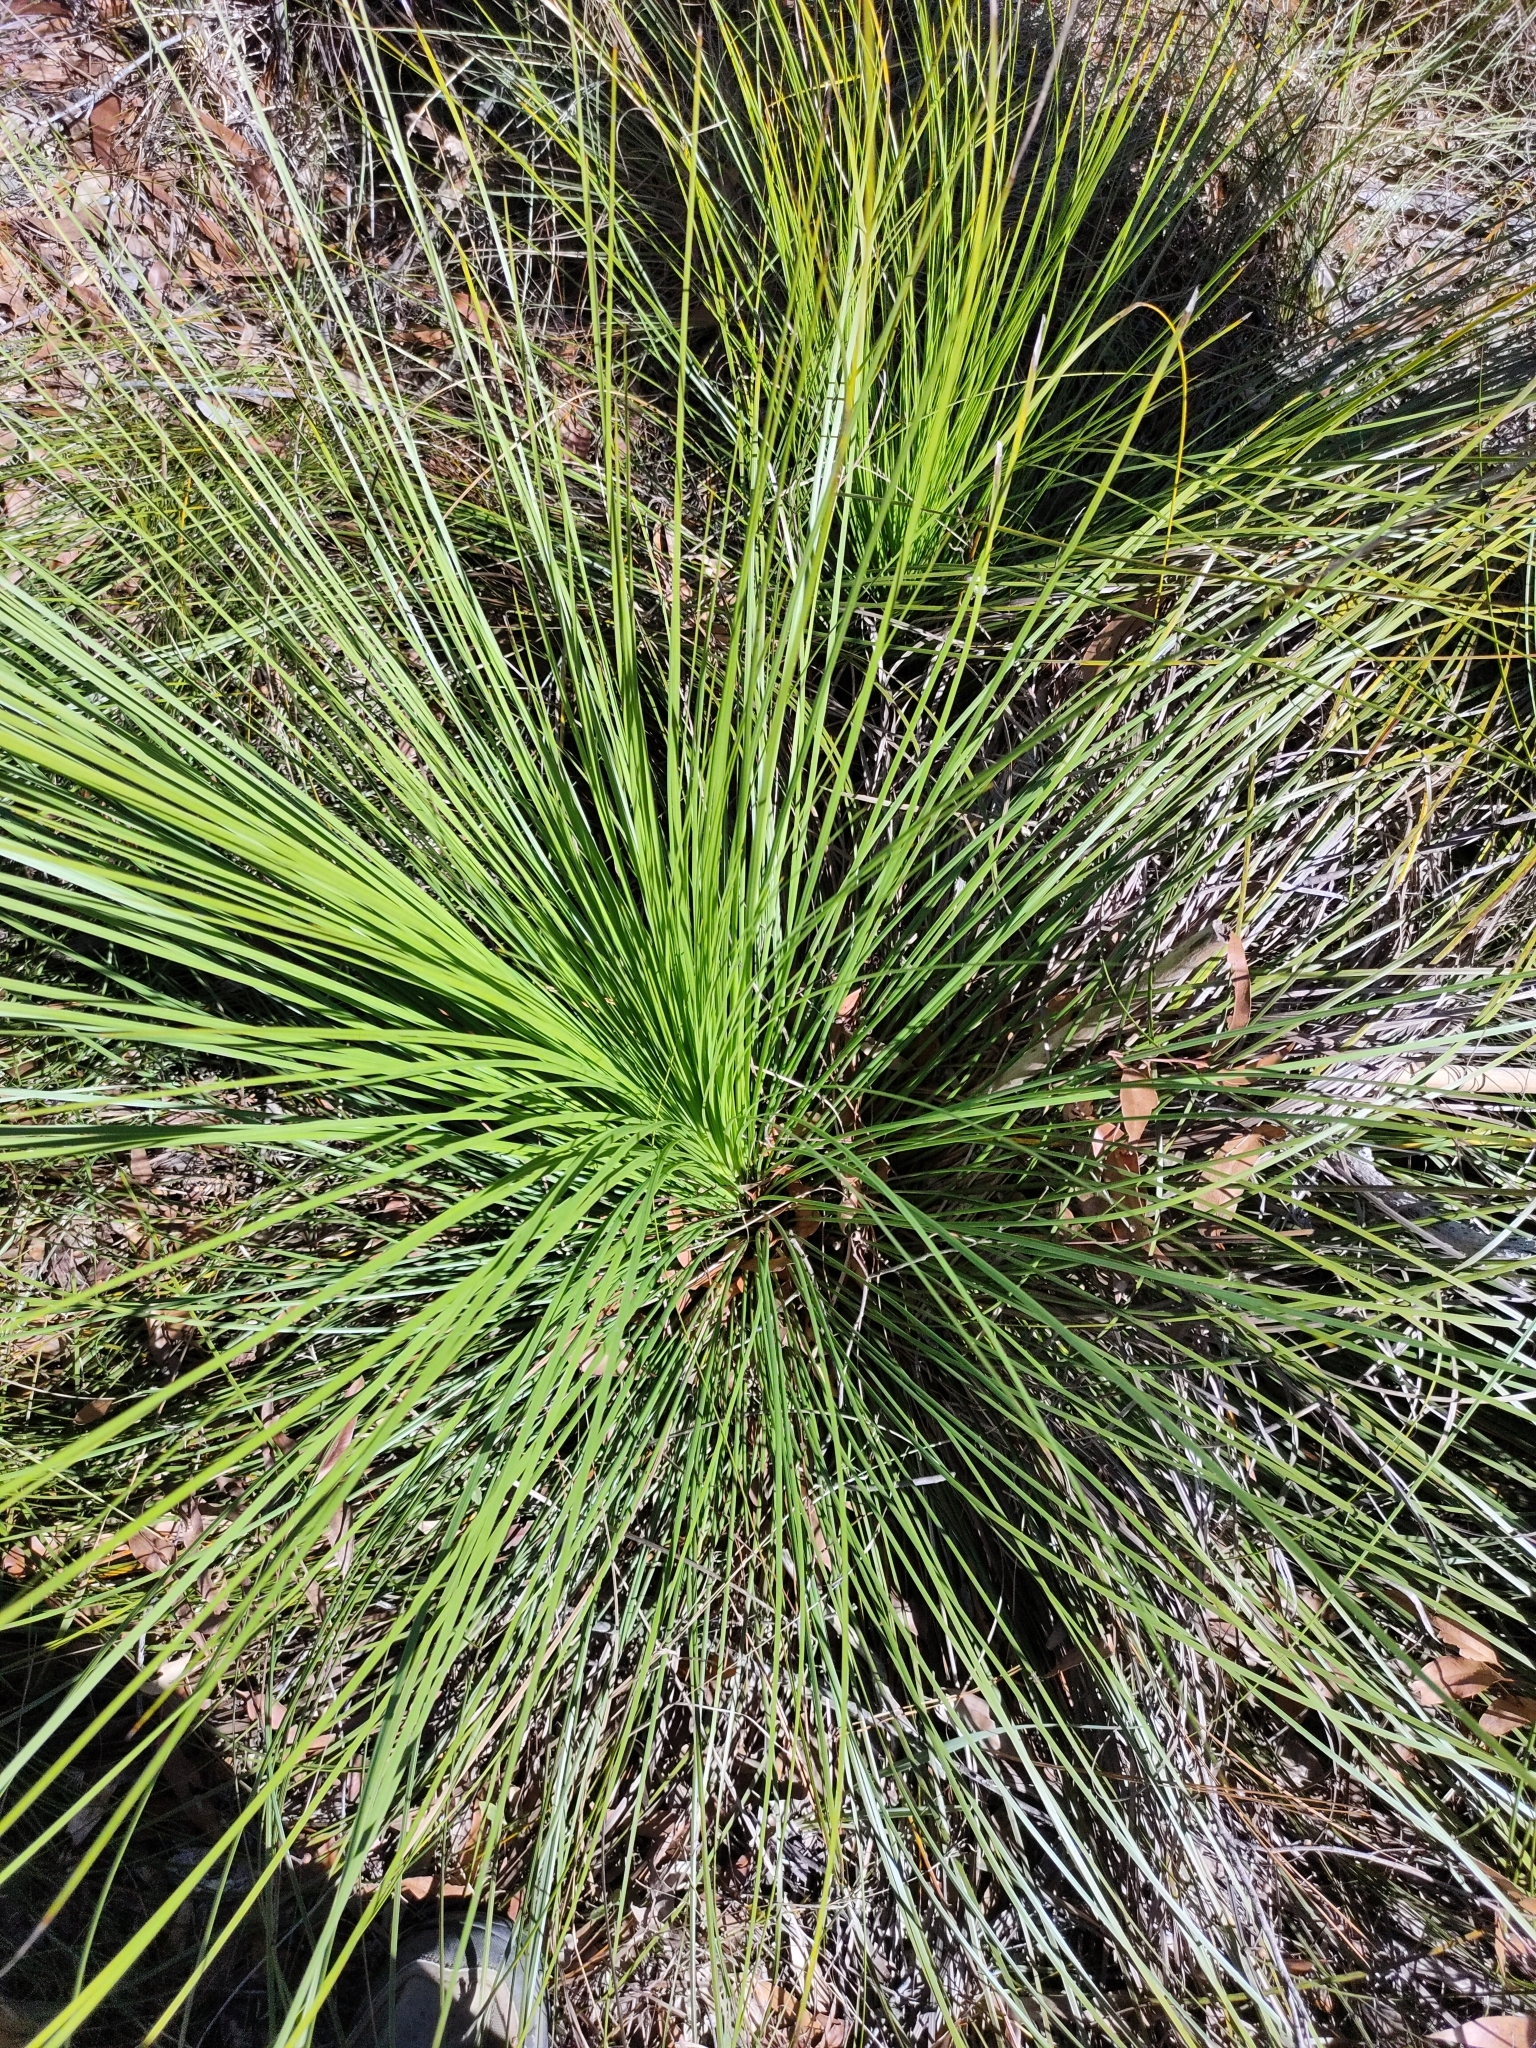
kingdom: Plantae
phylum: Tracheophyta
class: Liliopsida
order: Asparagales
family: Asphodelaceae
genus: Xanthorrhoea
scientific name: Xanthorrhoea latifolia
